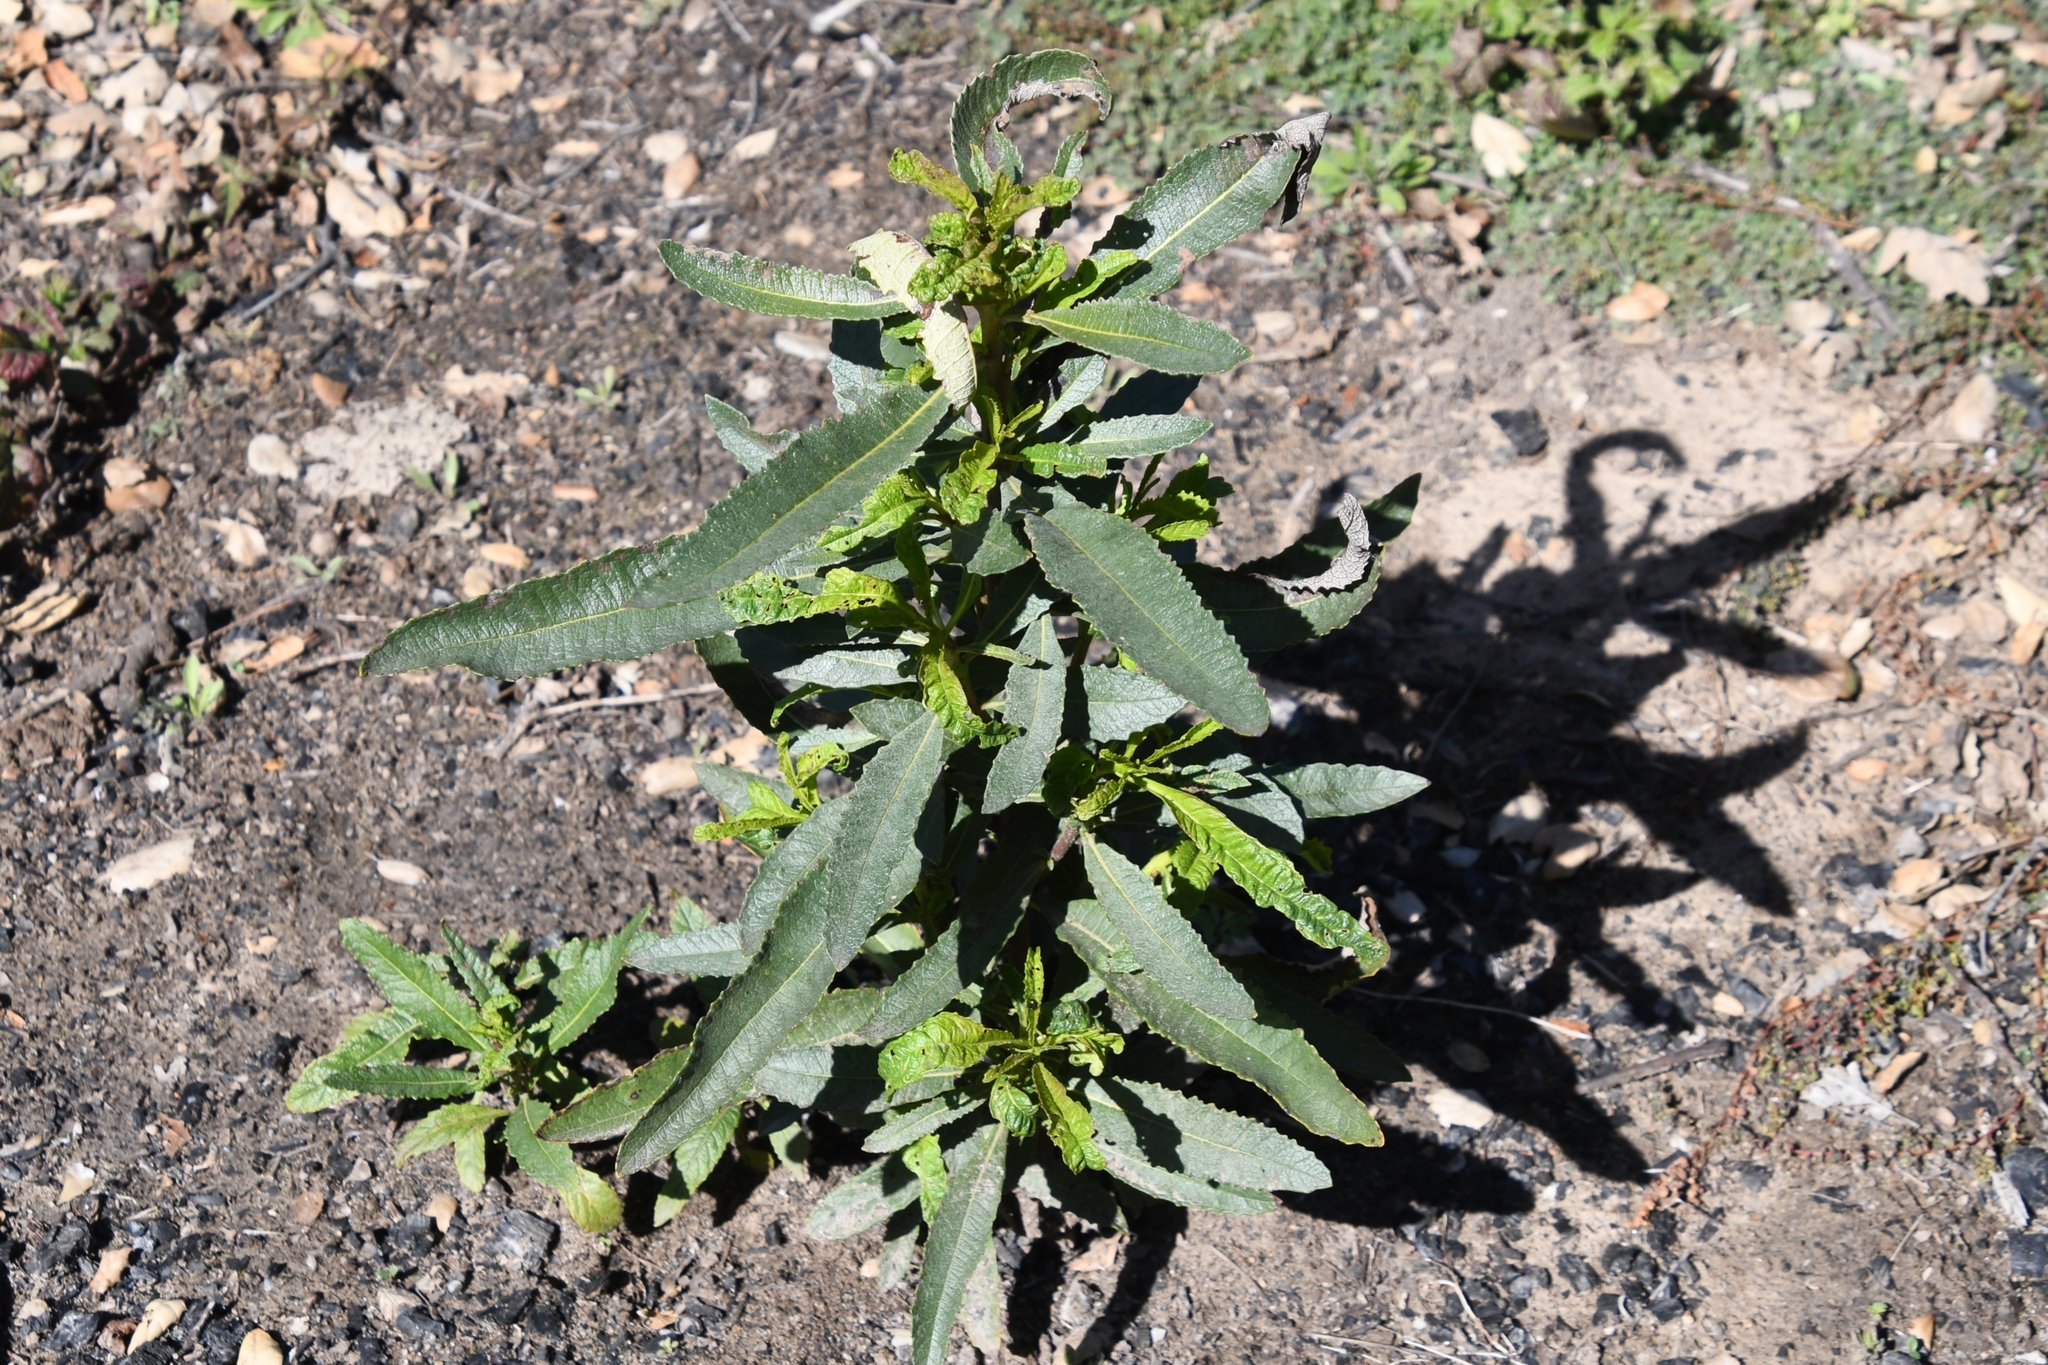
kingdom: Plantae
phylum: Tracheophyta
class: Magnoliopsida
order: Boraginales
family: Namaceae
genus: Eriodictyon
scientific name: Eriodictyon californicum
